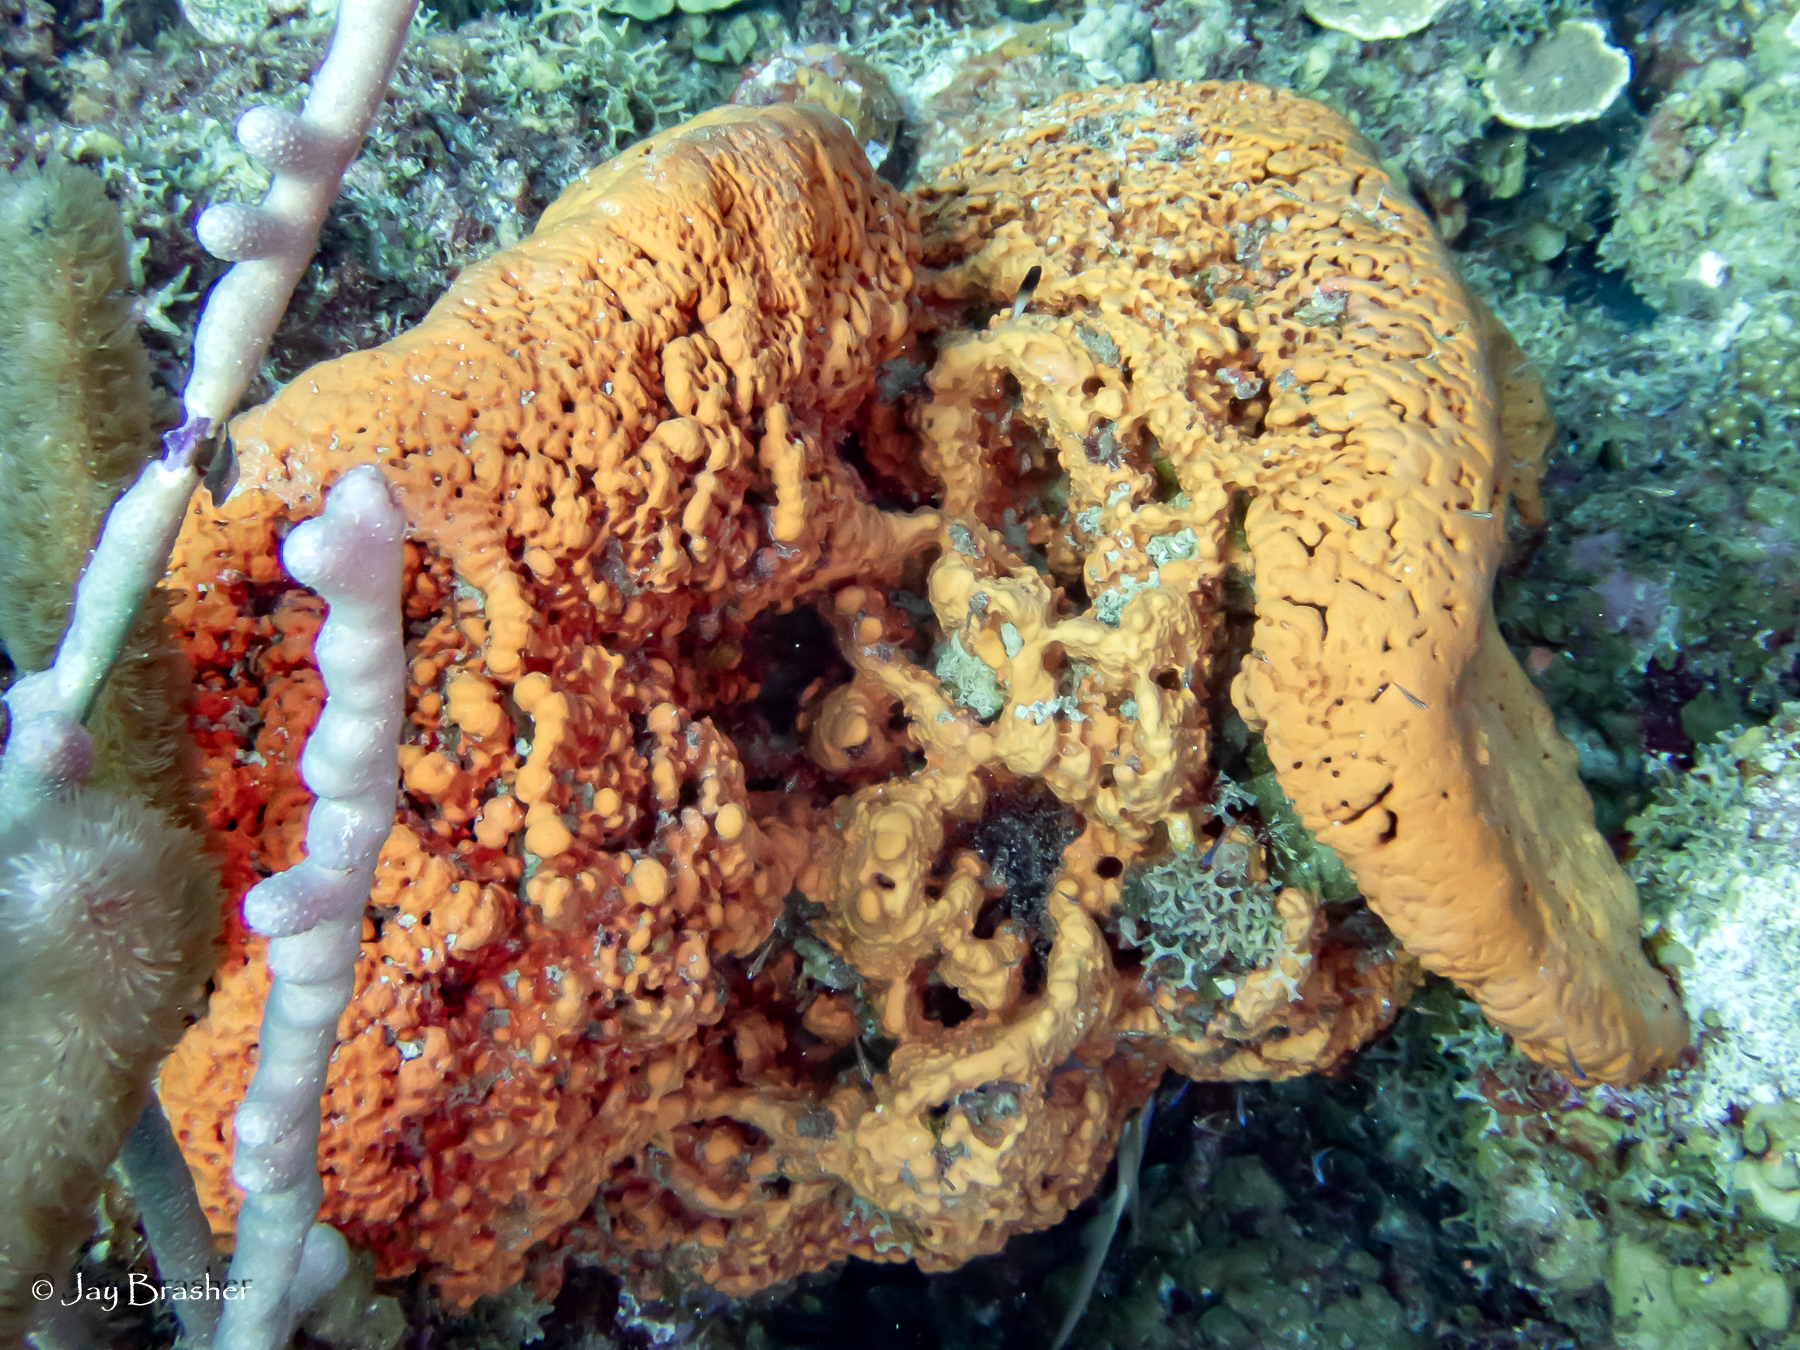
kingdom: Animalia
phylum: Porifera
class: Demospongiae
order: Agelasida
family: Agelasidae
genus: Agelas
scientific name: Agelas clathrodes
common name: Orange elephant ear sponge
